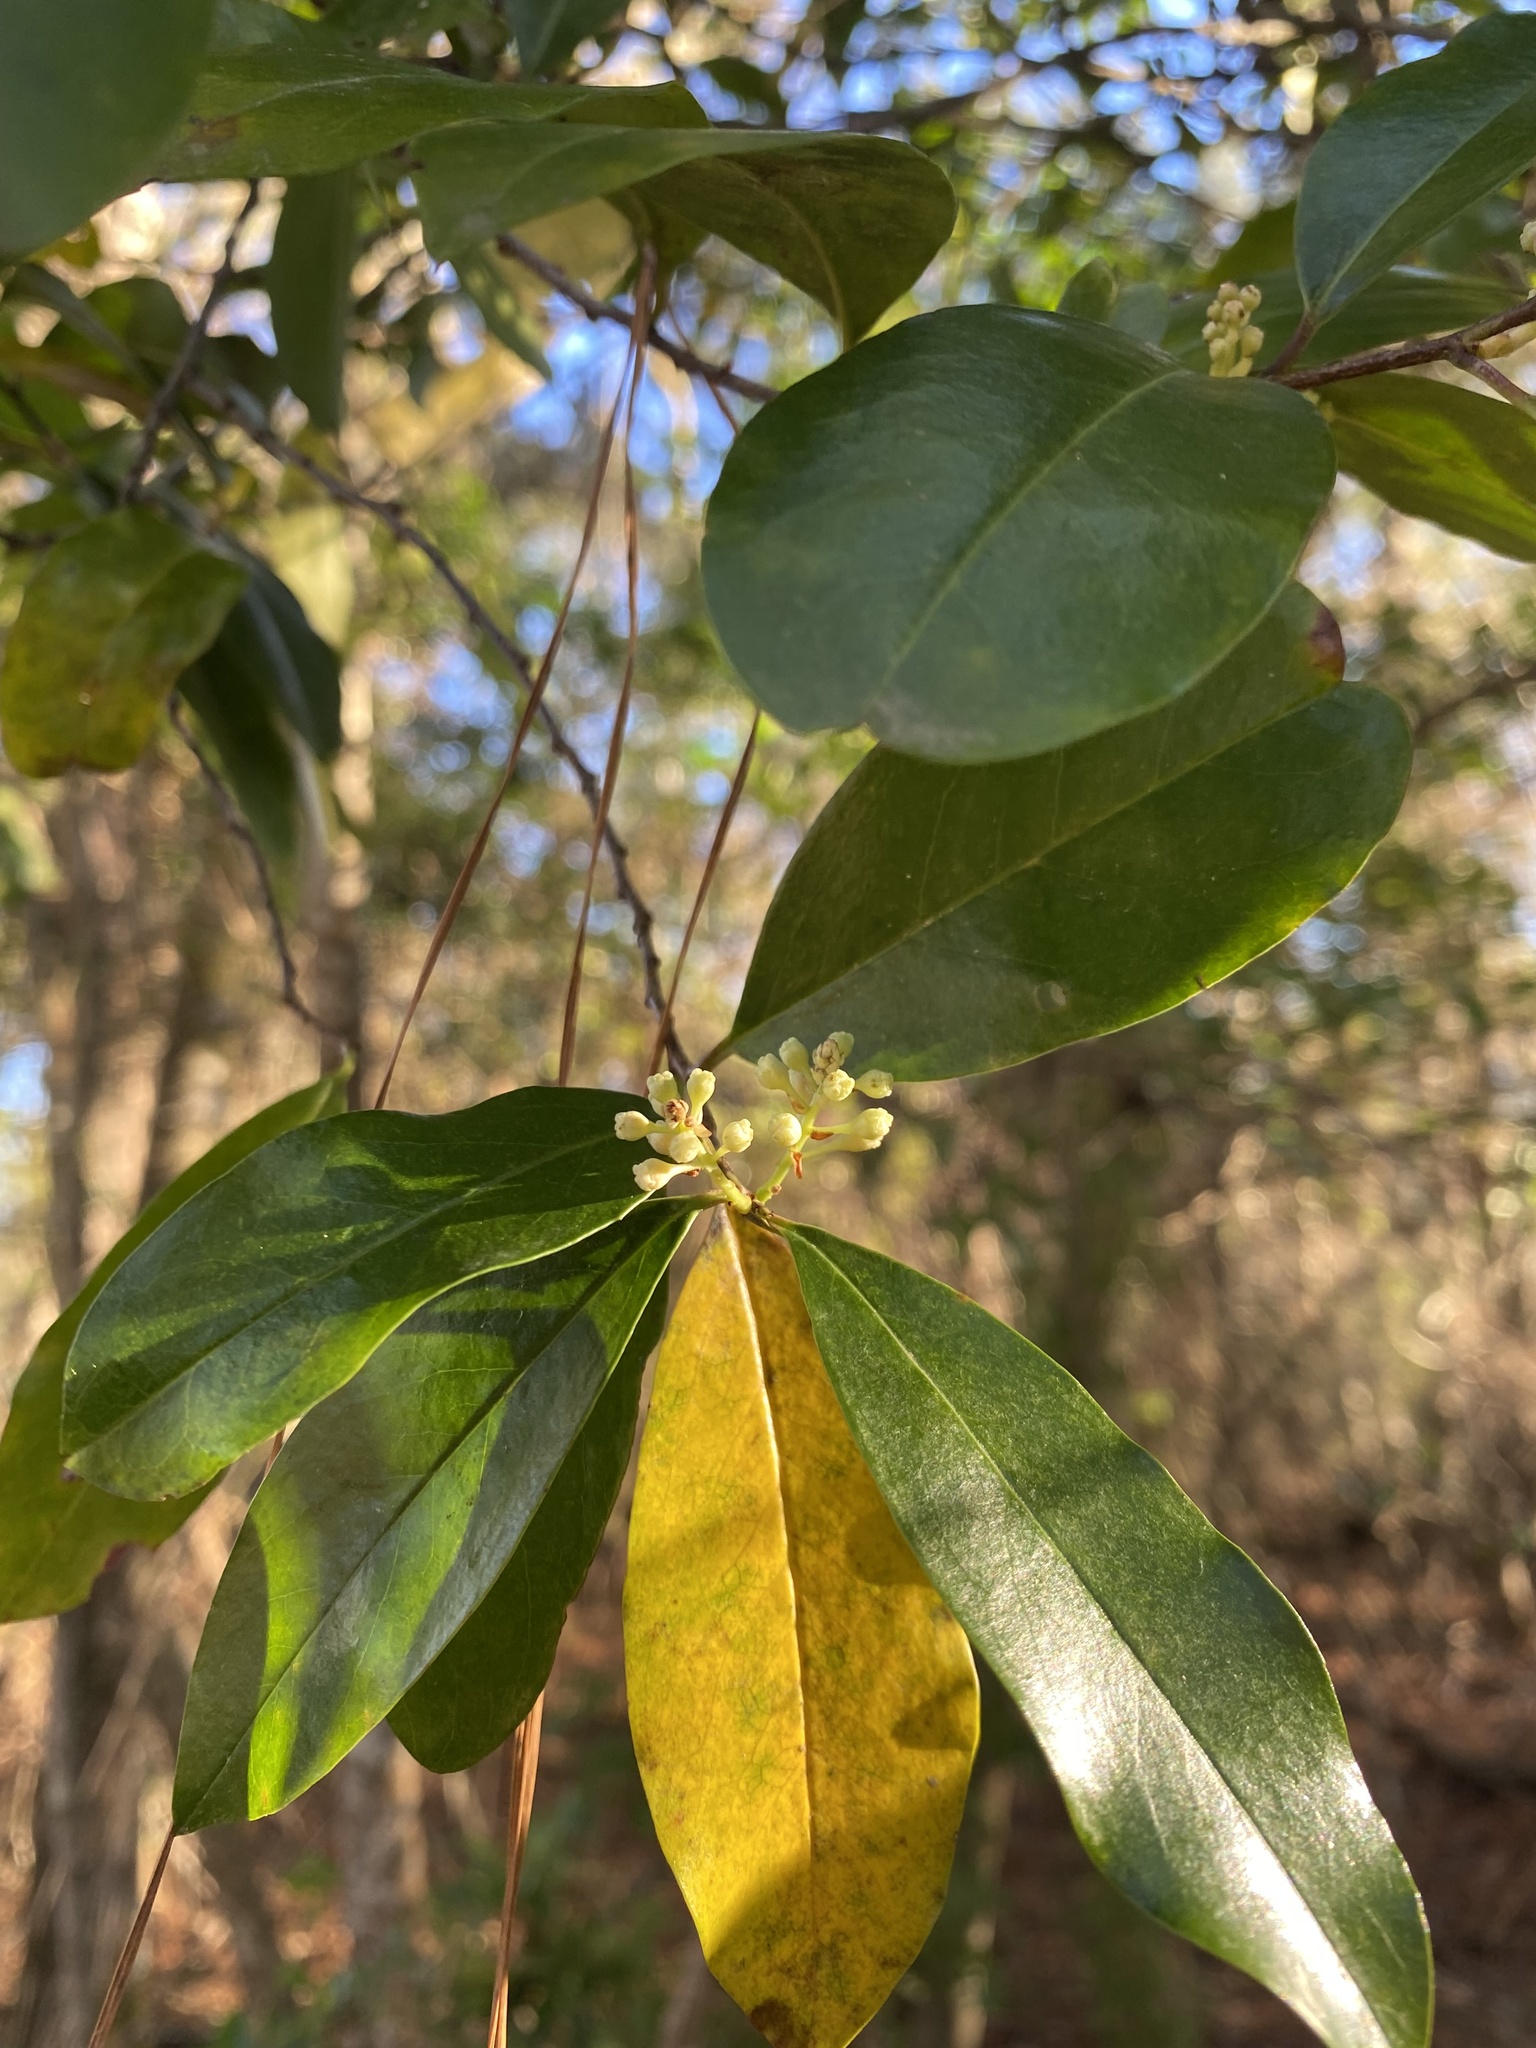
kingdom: Plantae
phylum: Tracheophyta
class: Magnoliopsida
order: Rosales
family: Rosaceae
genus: Prunus
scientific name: Prunus caroliniana
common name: Carolina laurel cherry
